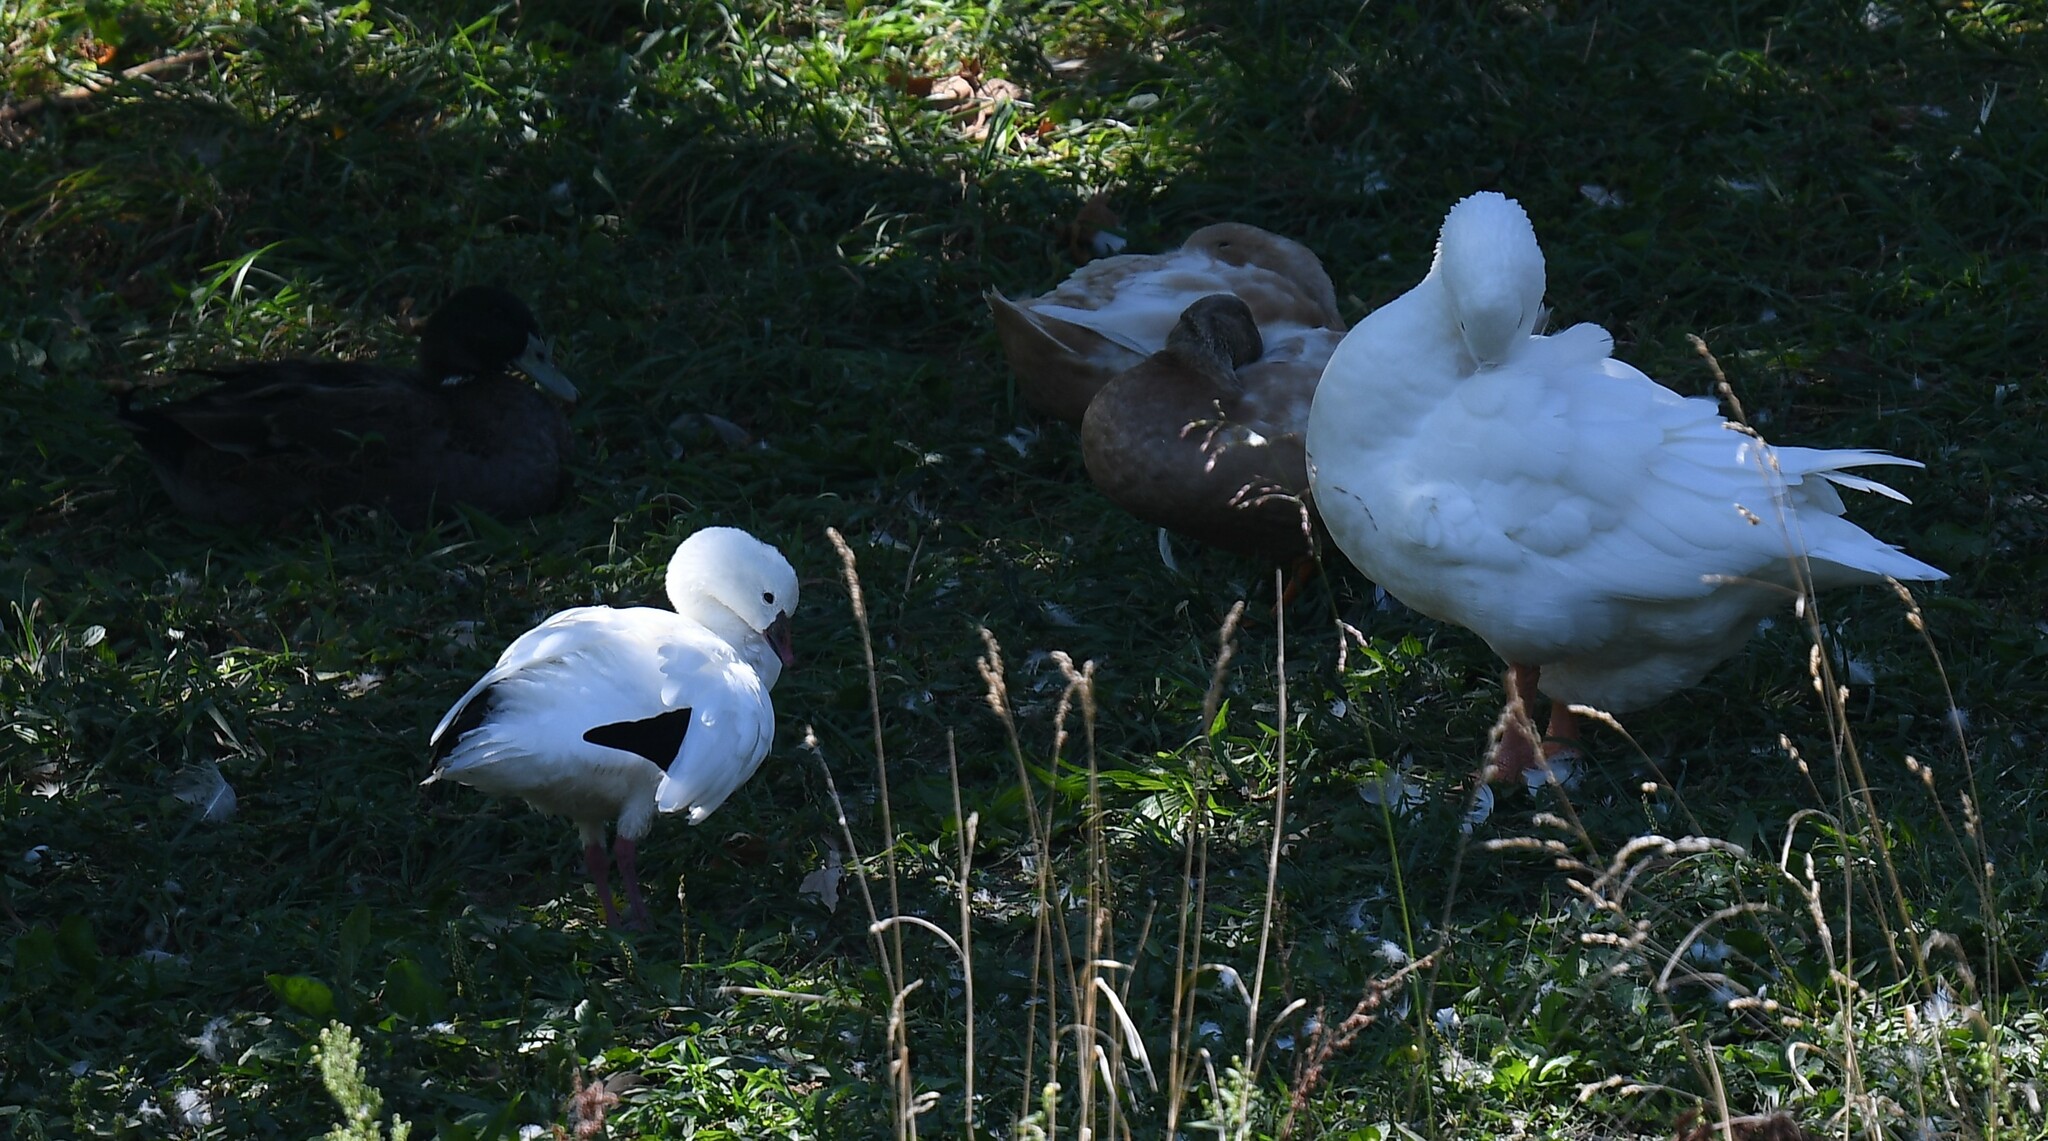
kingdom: Animalia
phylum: Chordata
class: Aves
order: Anseriformes
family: Anatidae
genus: Anser
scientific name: Anser rossii
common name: Ross's goose
